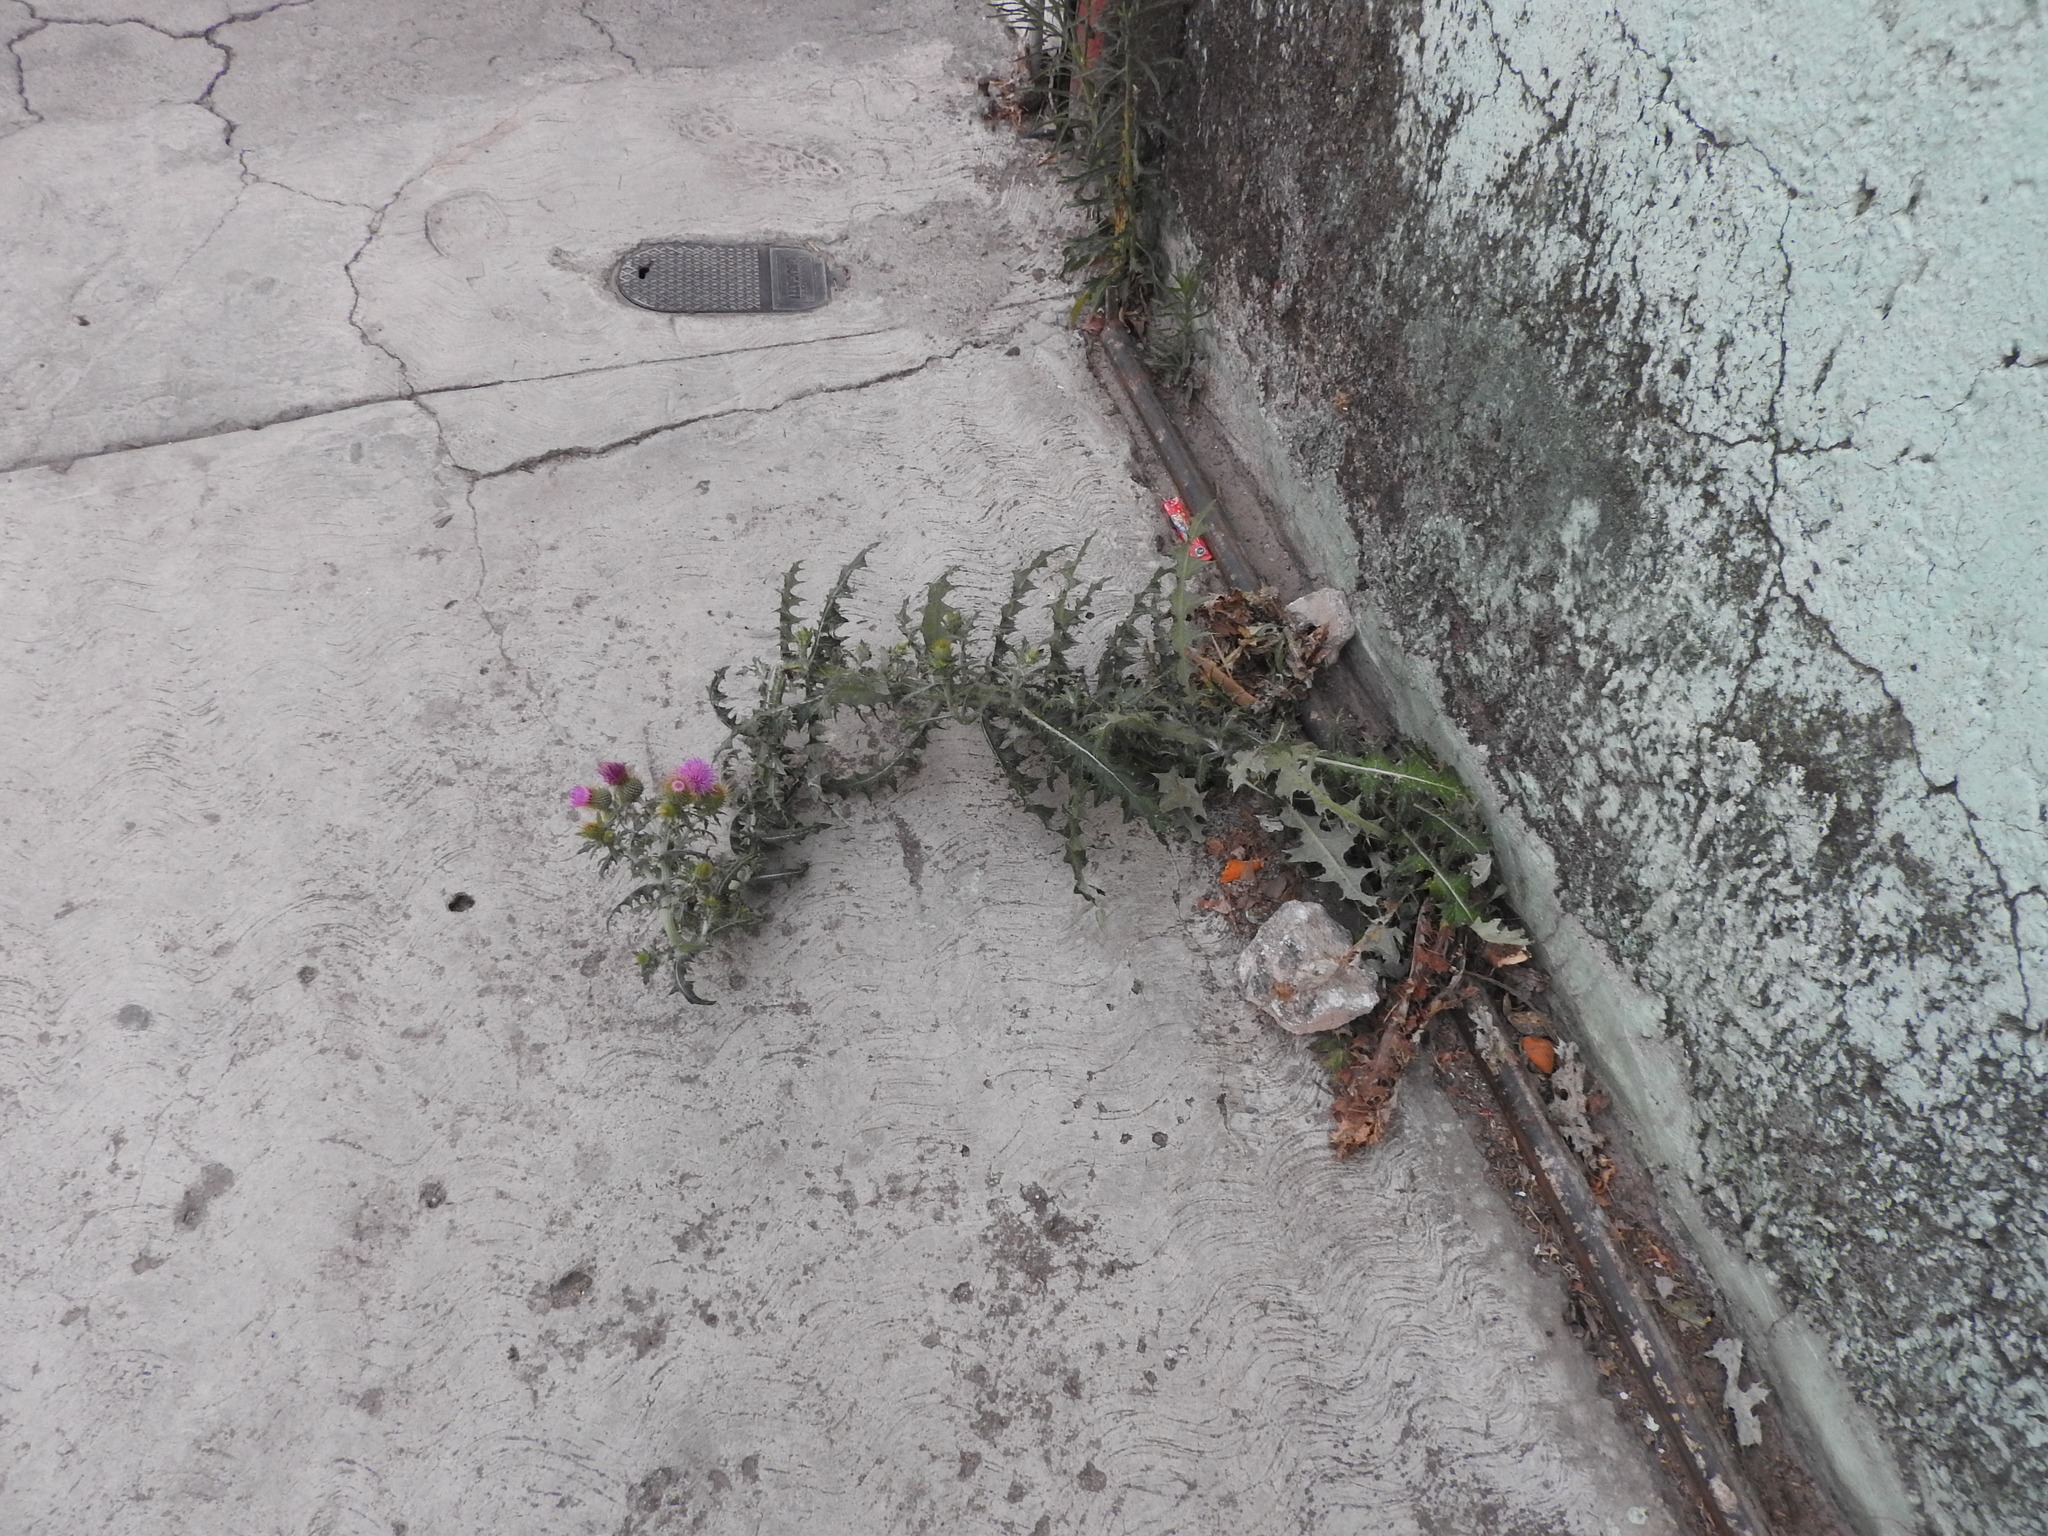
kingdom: Plantae
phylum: Tracheophyta
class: Magnoliopsida
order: Asterales
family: Asteraceae
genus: Cirsium
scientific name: Cirsium rhaphilepis
